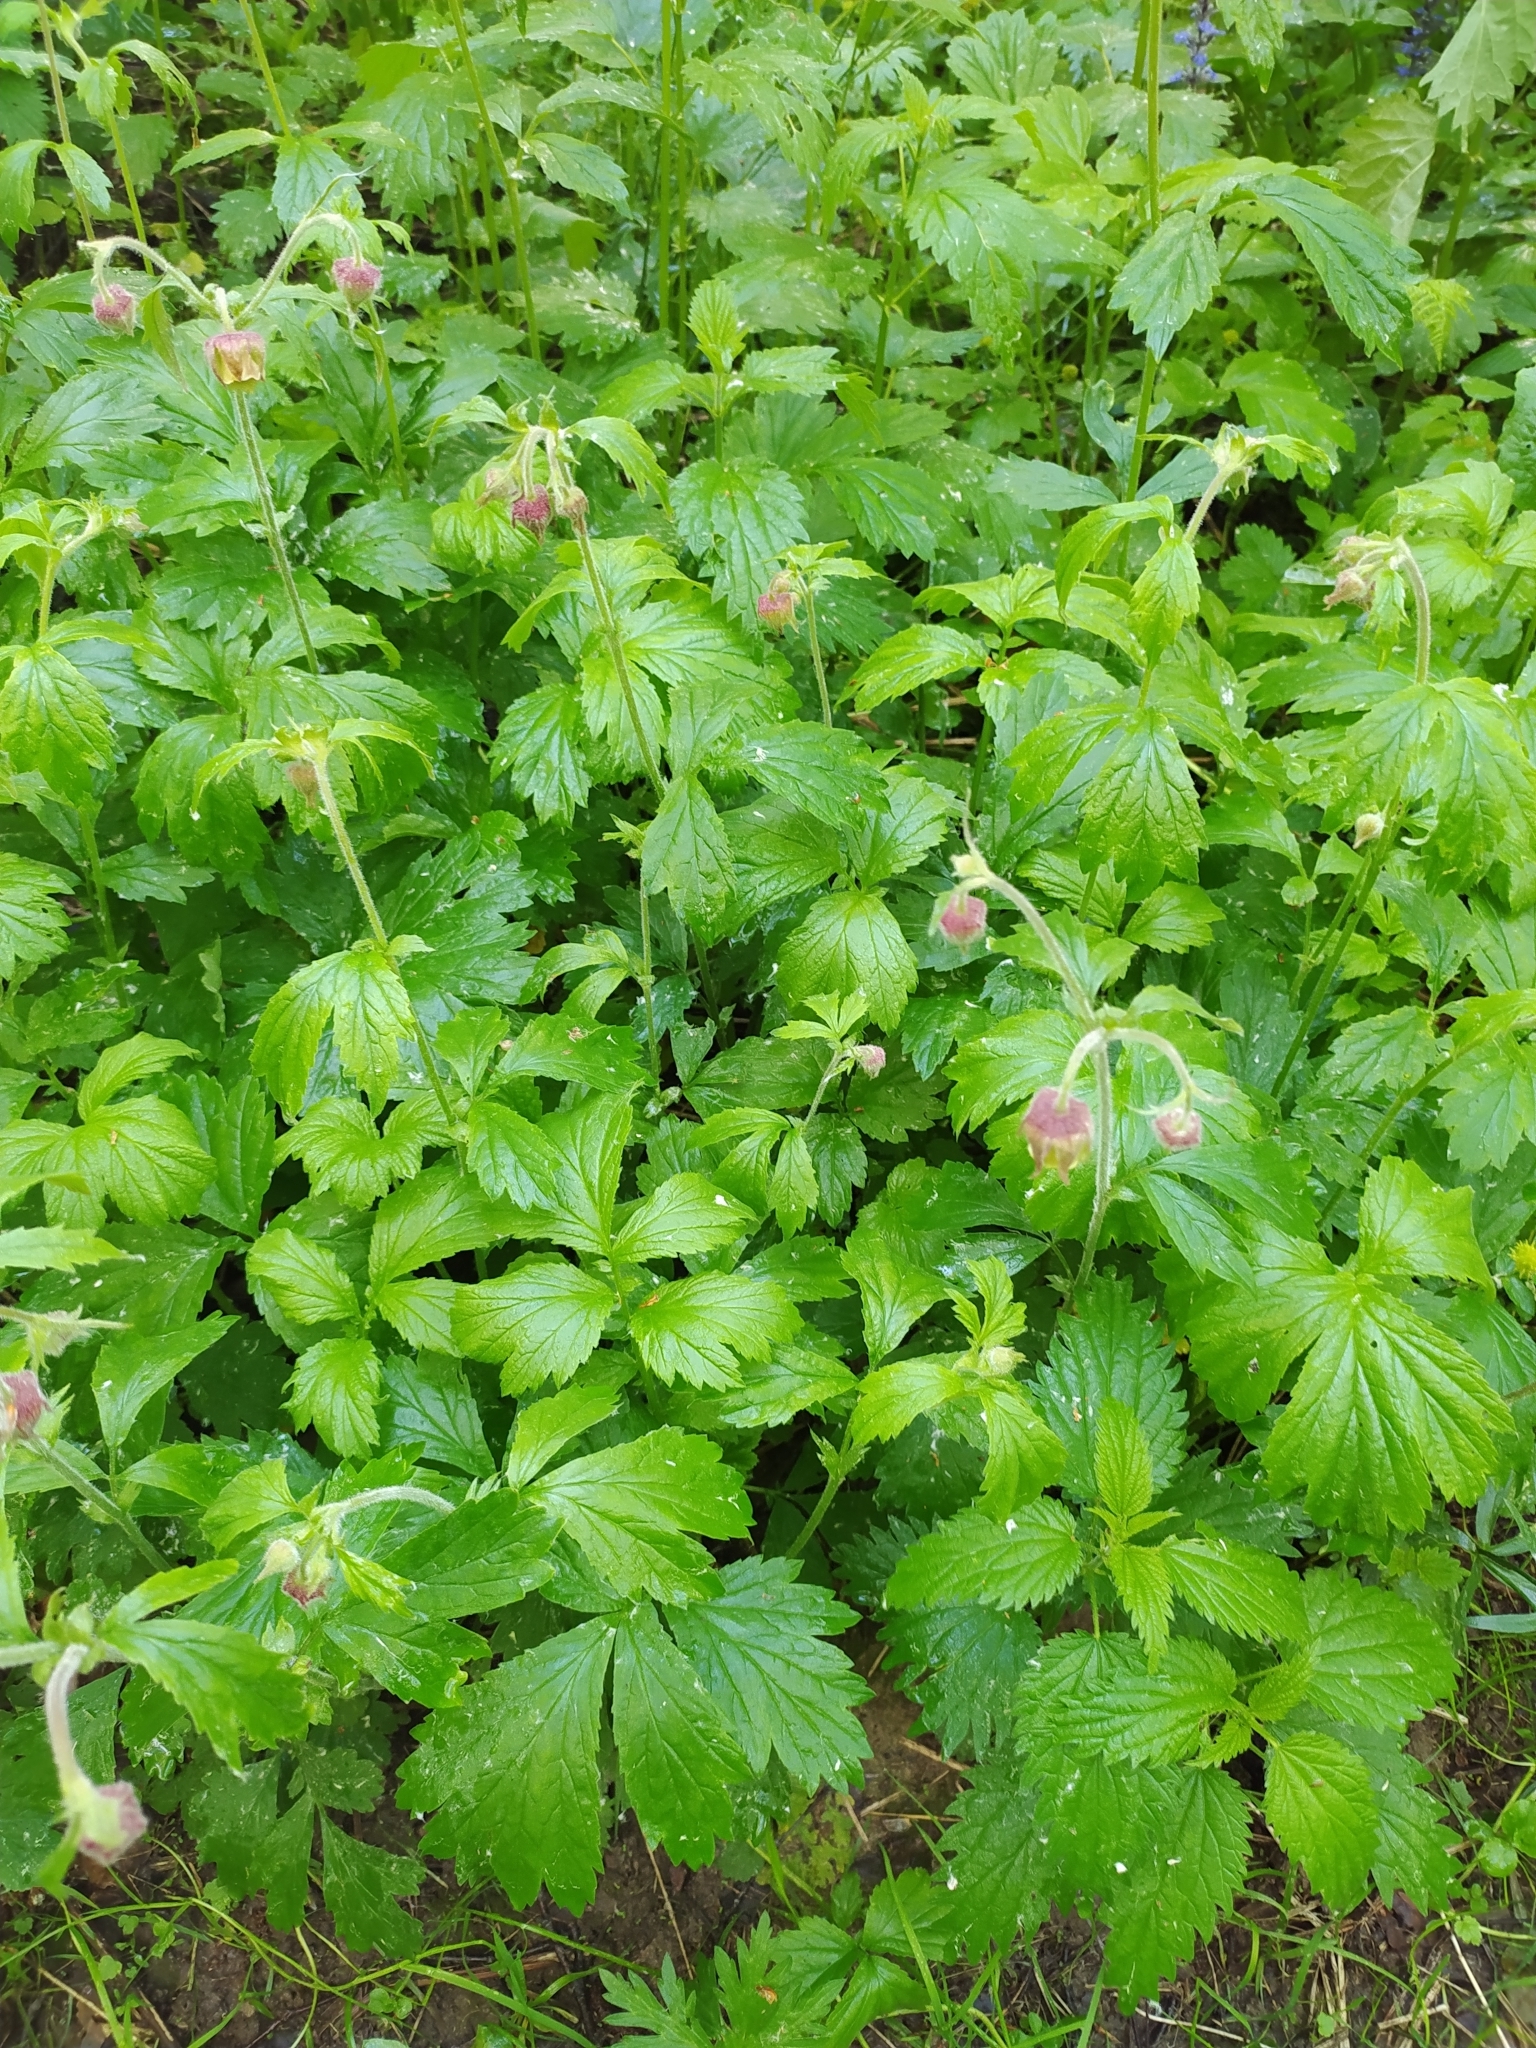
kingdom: Plantae
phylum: Tracheophyta
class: Magnoliopsida
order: Rosales
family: Rosaceae
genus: Geum
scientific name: Geum rivale
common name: Water avens
